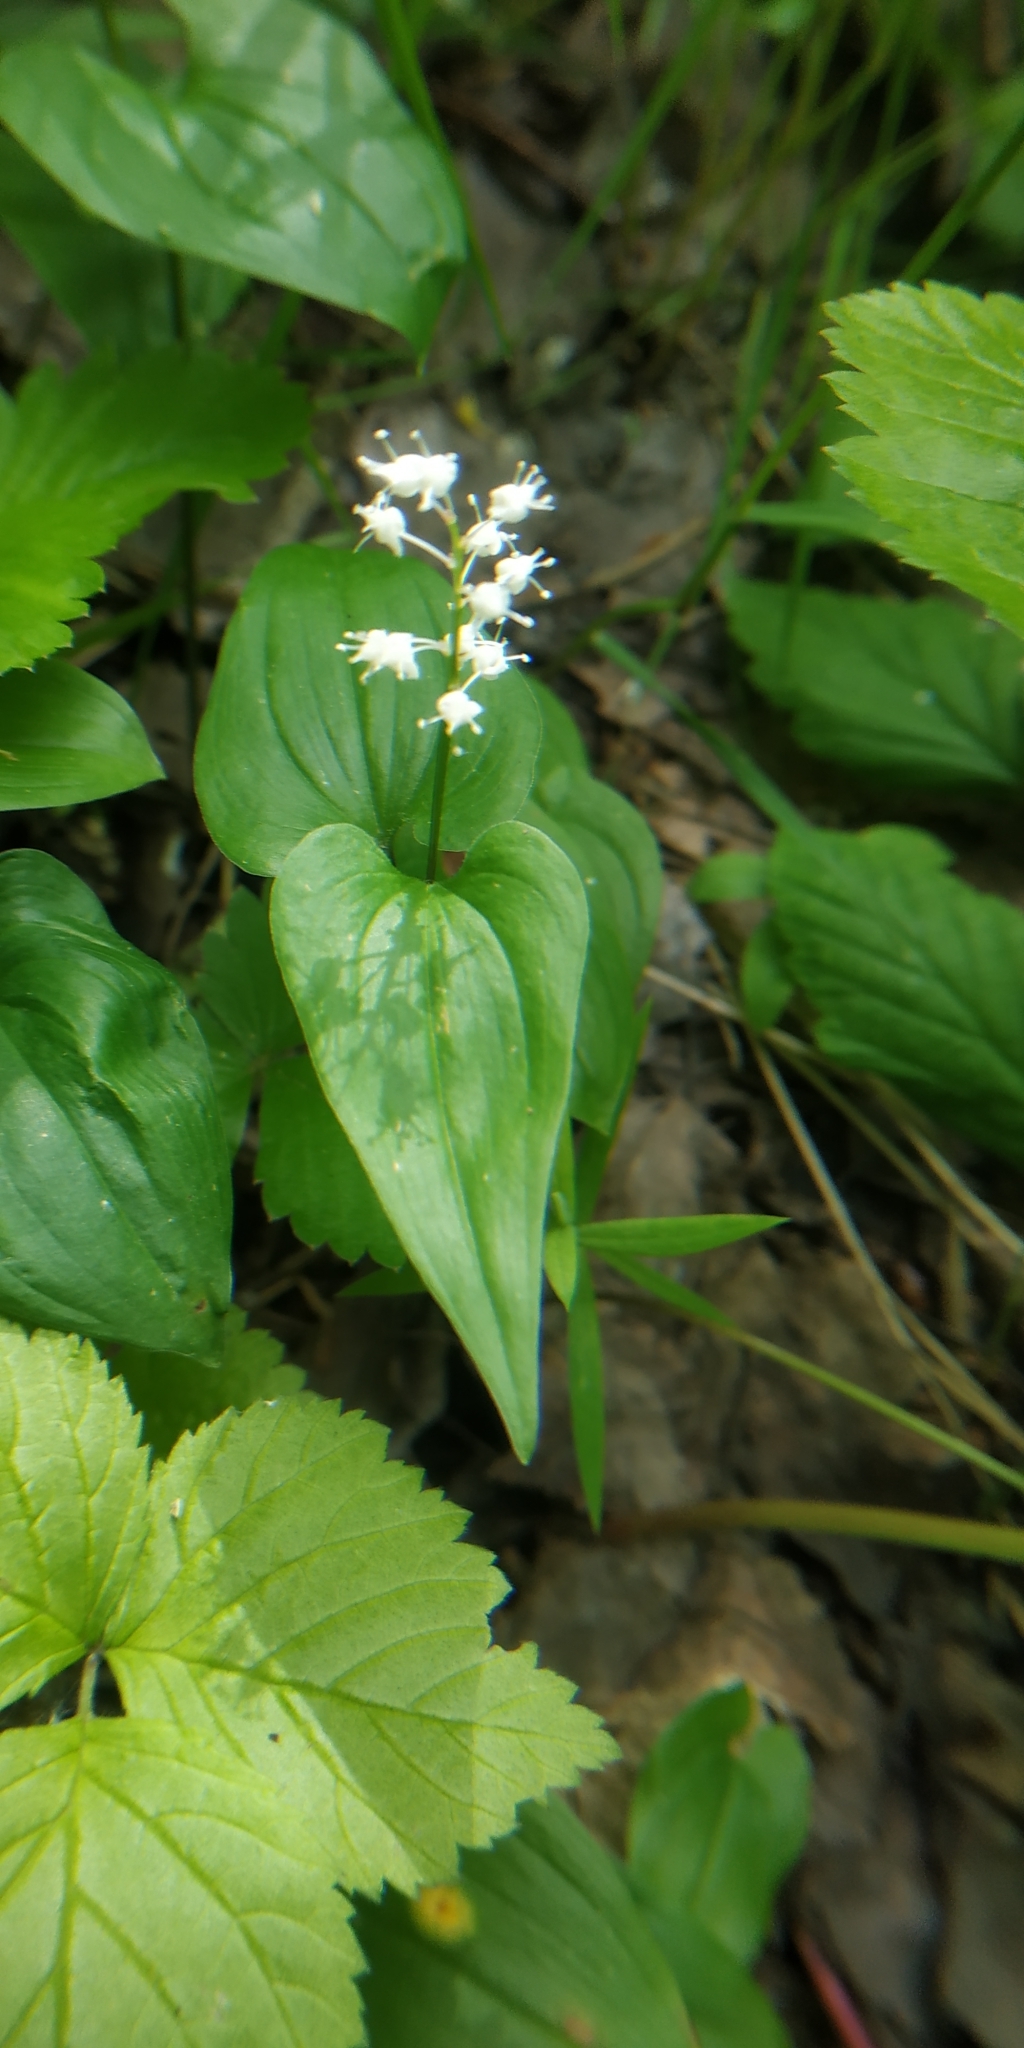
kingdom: Plantae
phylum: Tracheophyta
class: Liliopsida
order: Asparagales
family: Asparagaceae
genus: Maianthemum
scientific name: Maianthemum bifolium
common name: May lily
